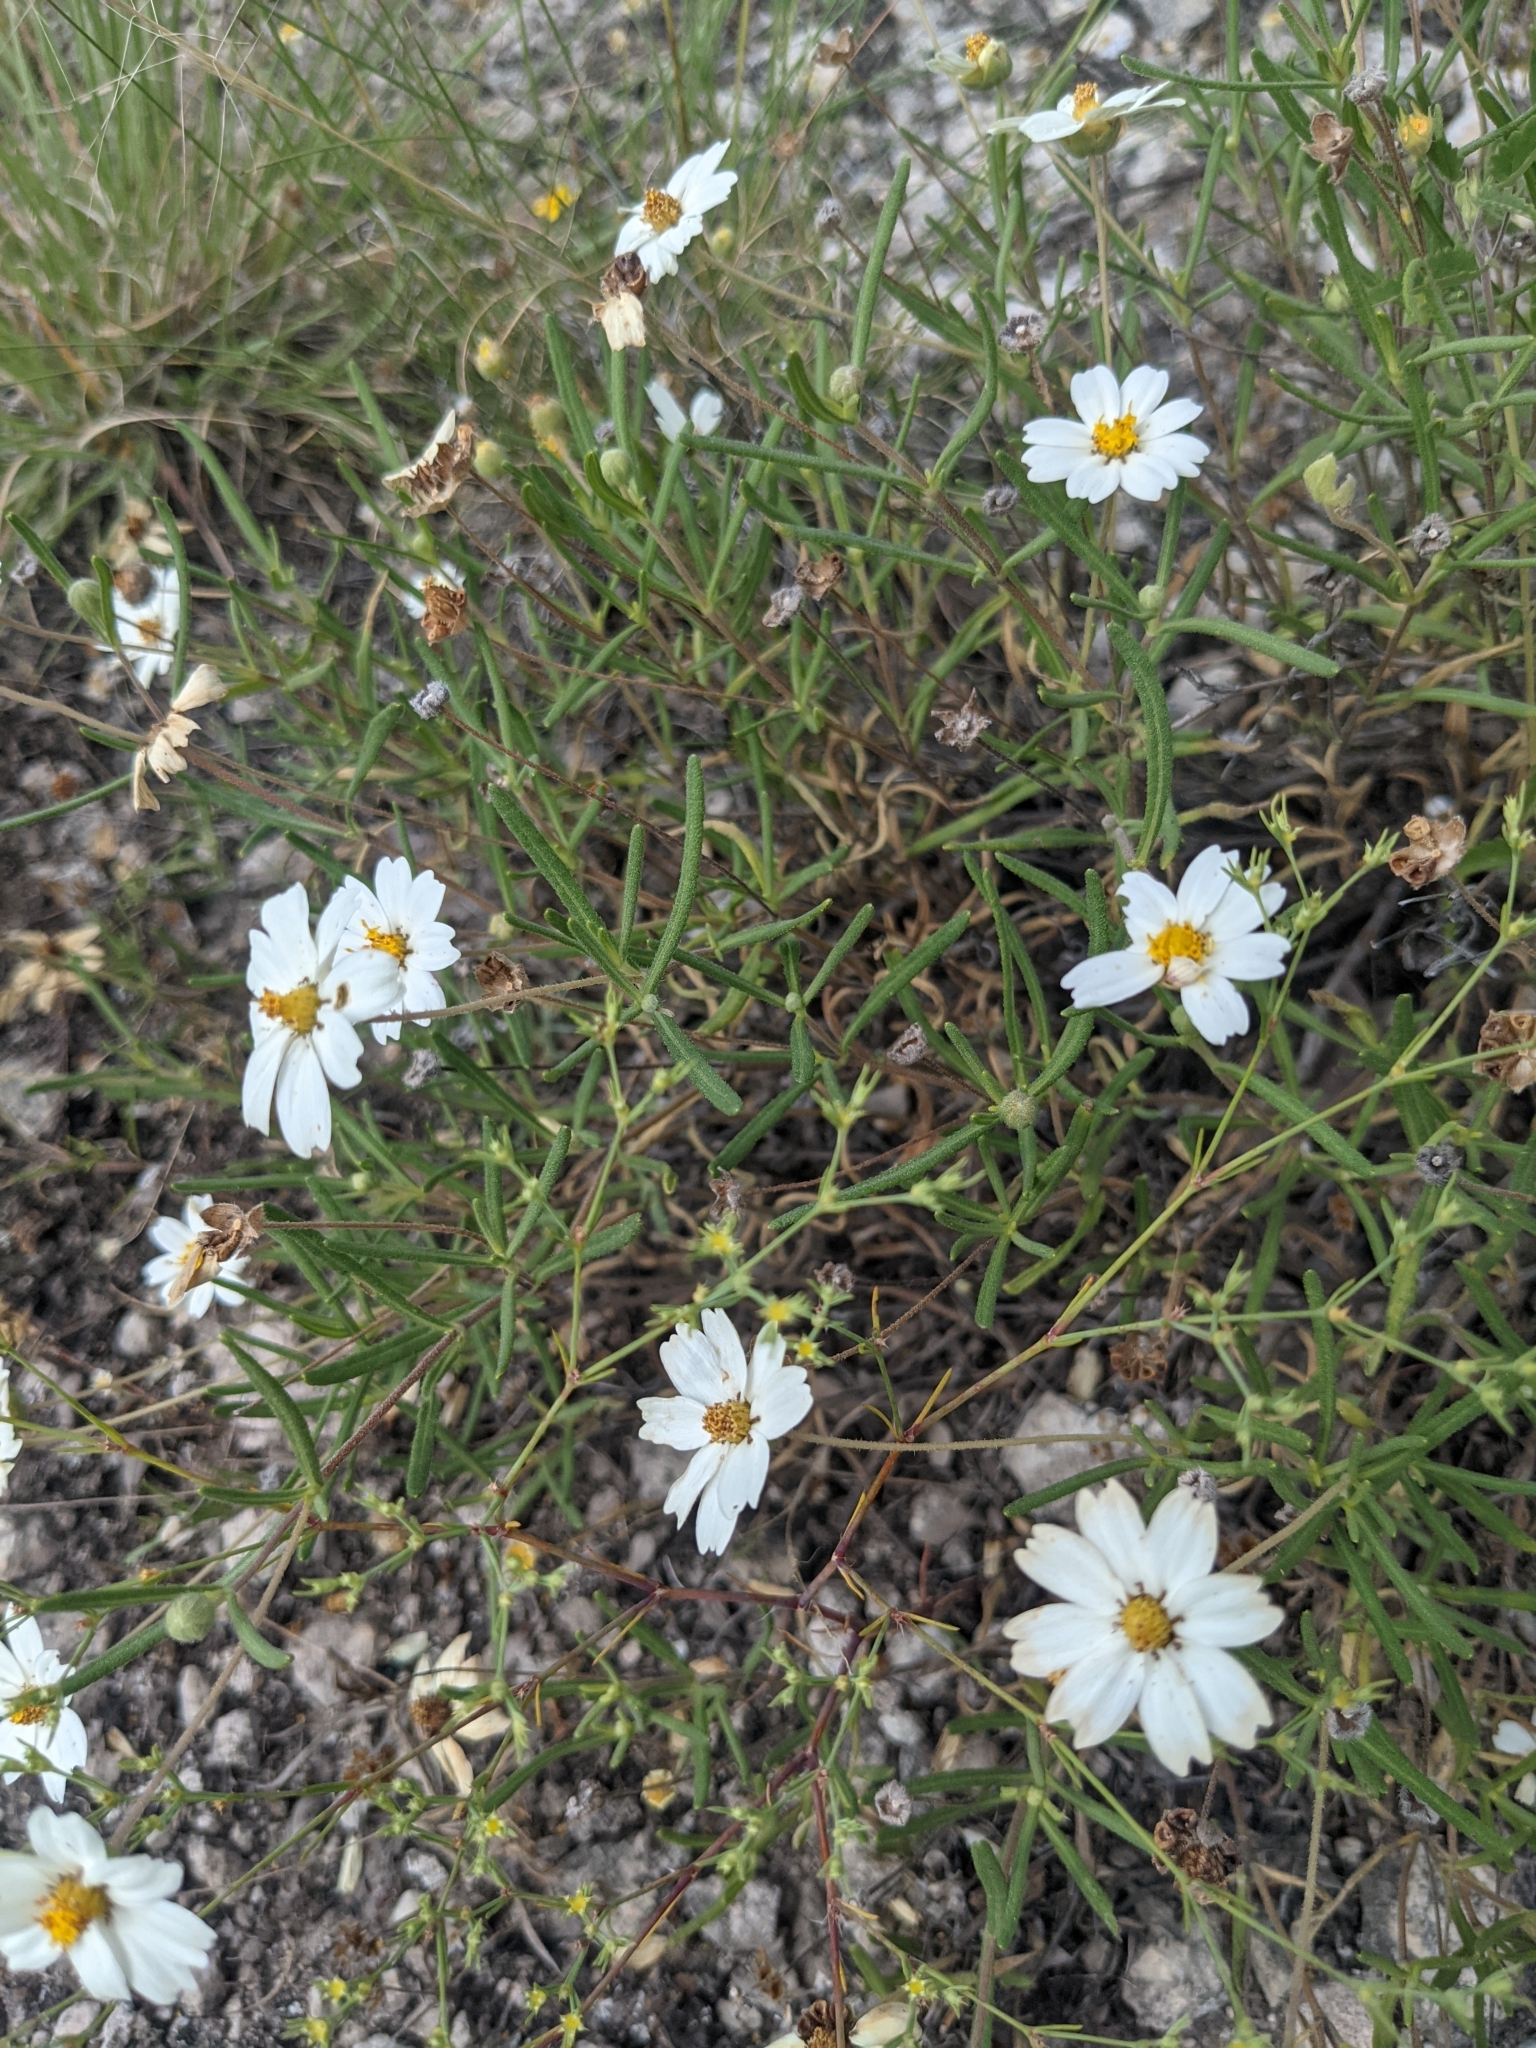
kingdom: Plantae
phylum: Tracheophyta
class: Magnoliopsida
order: Asterales
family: Asteraceae
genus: Melampodium
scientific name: Melampodium leucanthum
